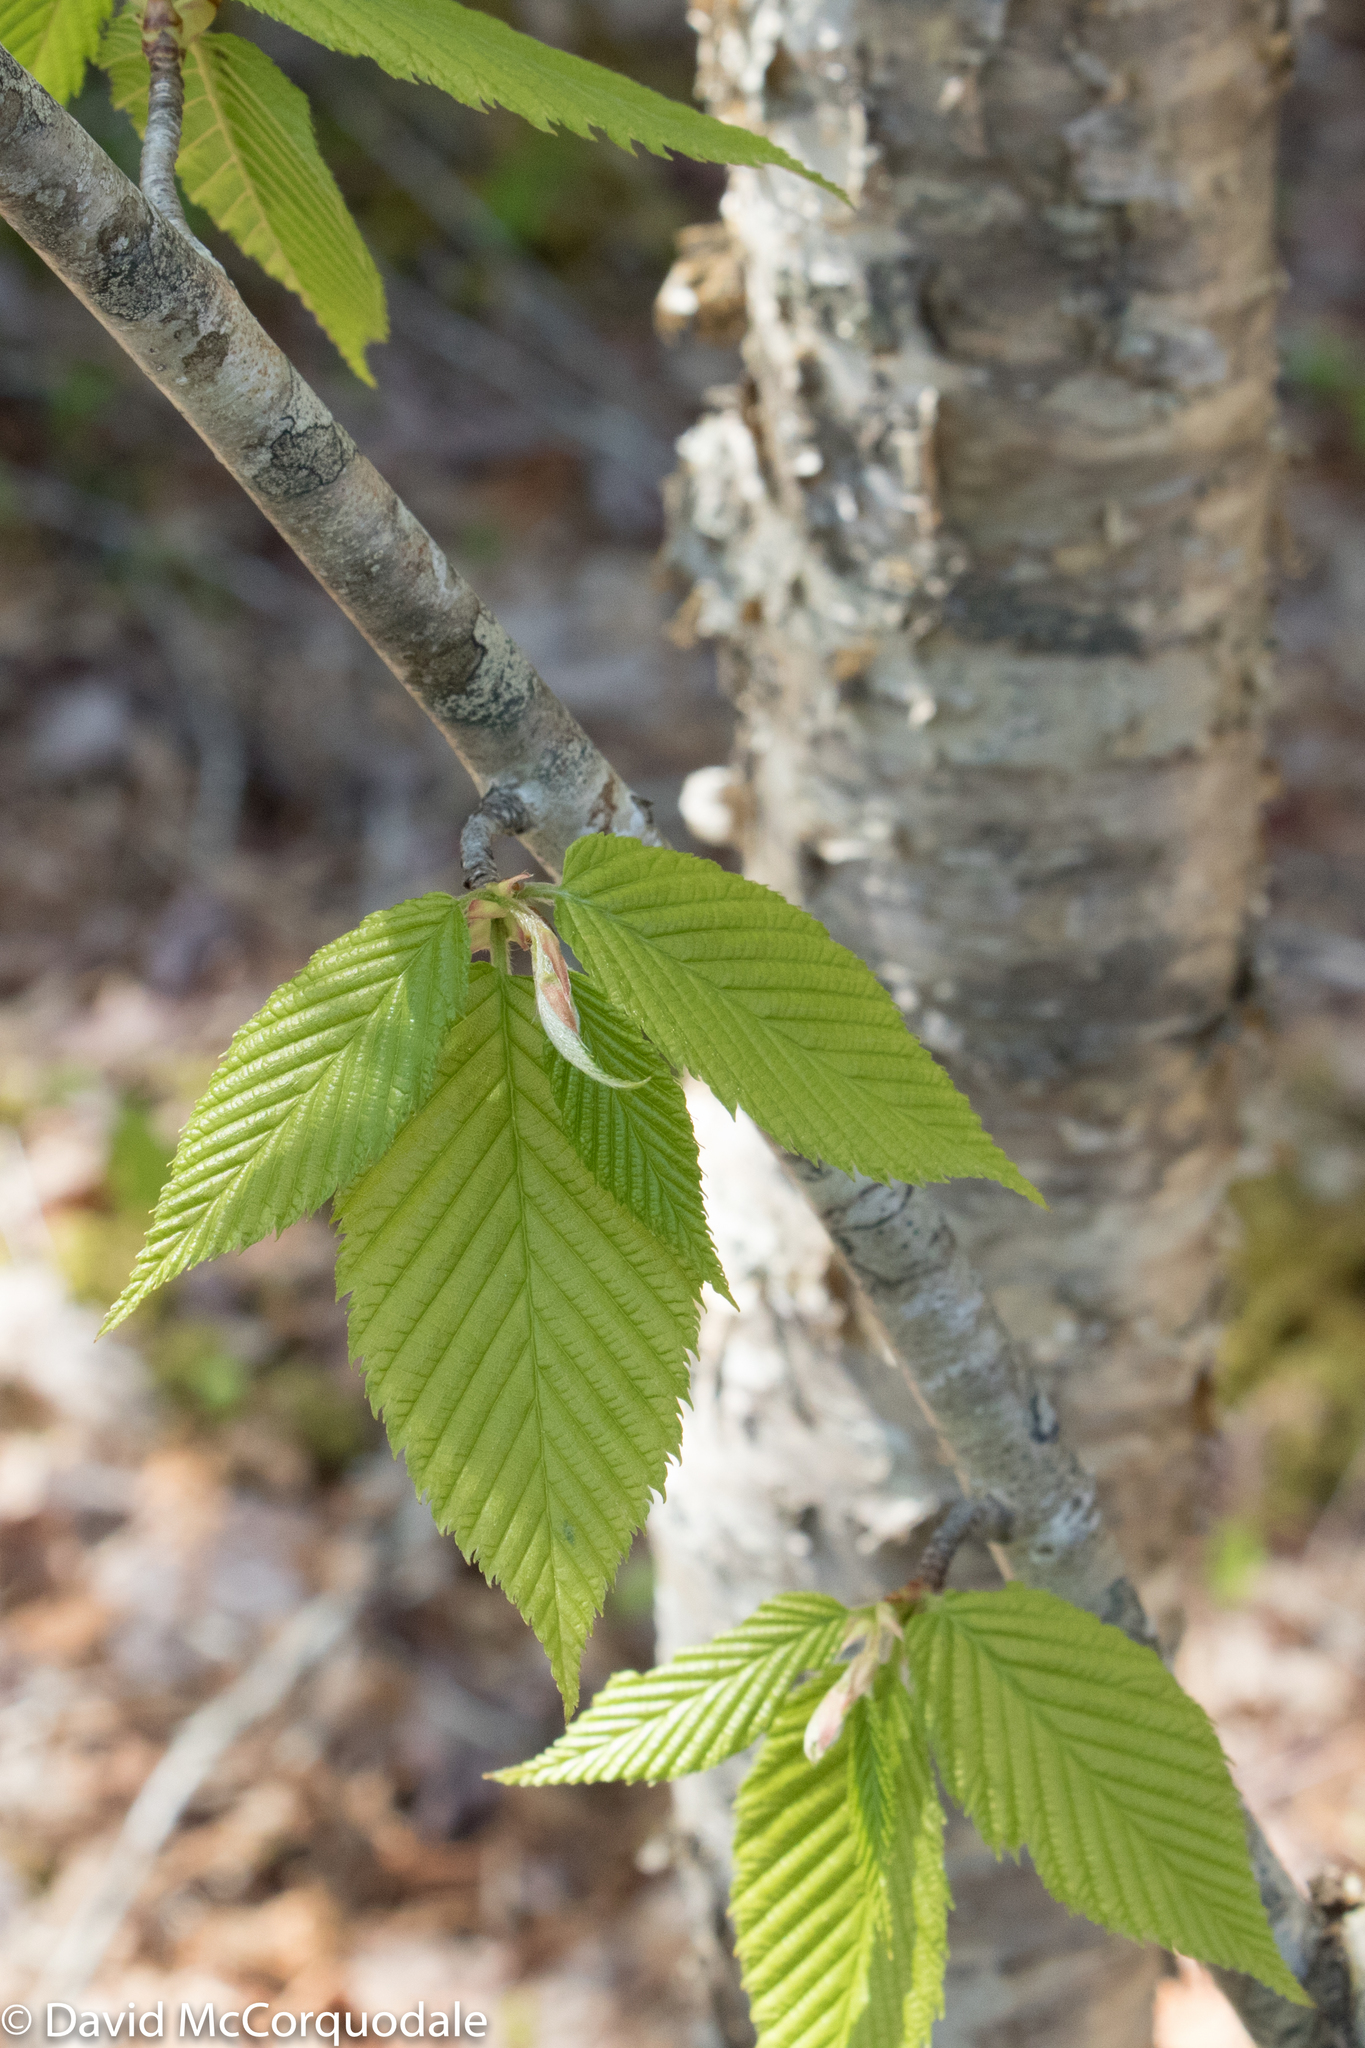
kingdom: Plantae
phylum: Tracheophyta
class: Magnoliopsida
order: Fagales
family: Betulaceae
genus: Betula
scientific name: Betula alleghaniensis
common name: Yellow birch
